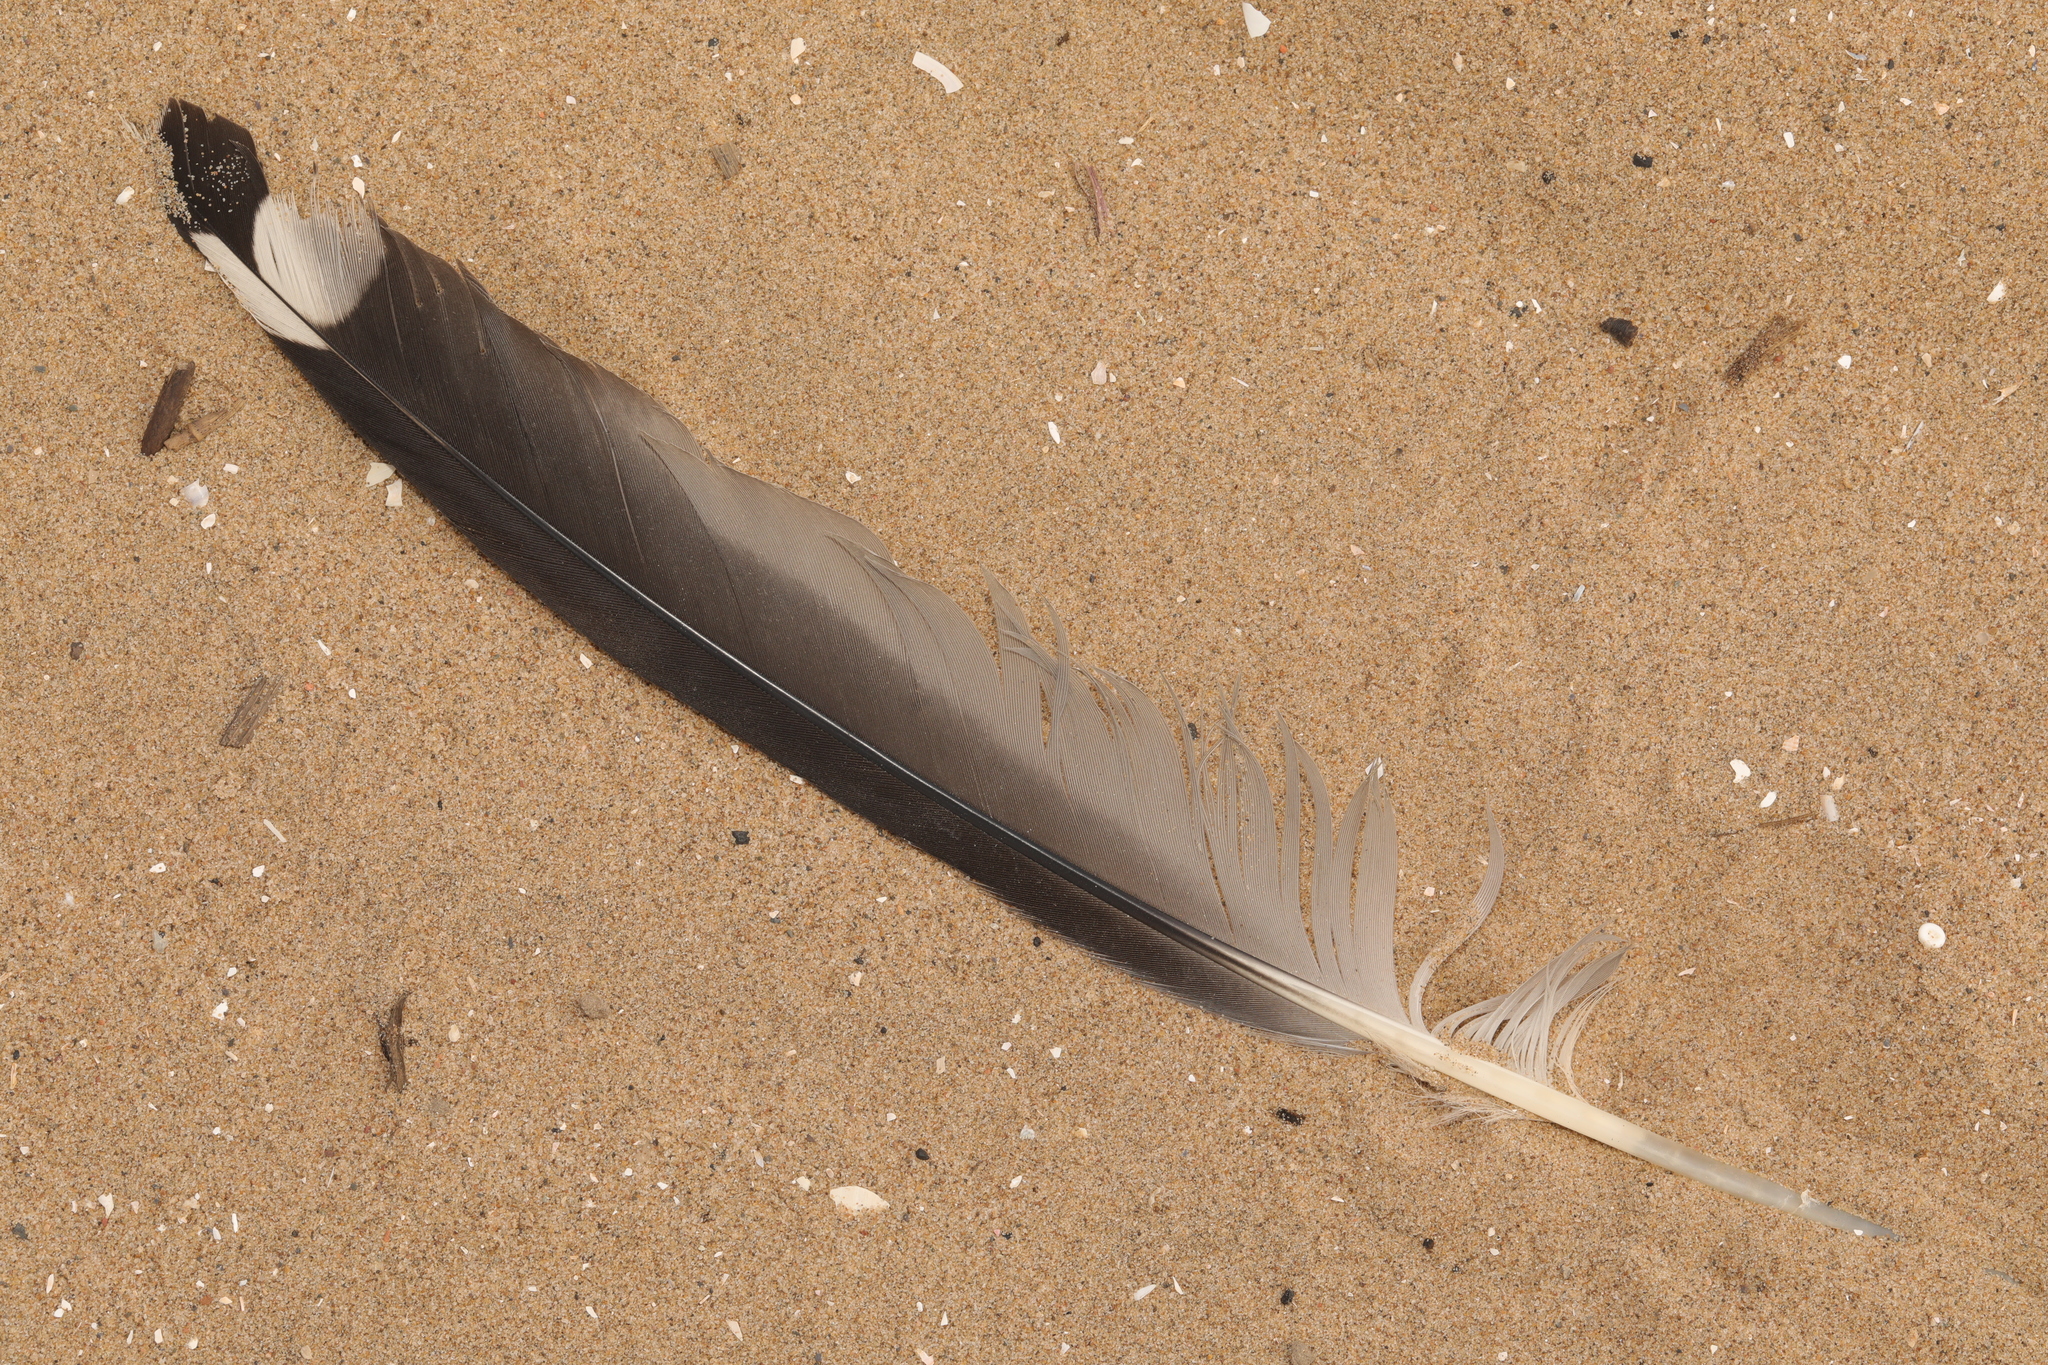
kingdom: Animalia
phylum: Chordata
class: Aves
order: Charadriiformes
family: Laridae
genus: Larus
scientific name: Larus fuscus
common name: Lesser black-backed gull
